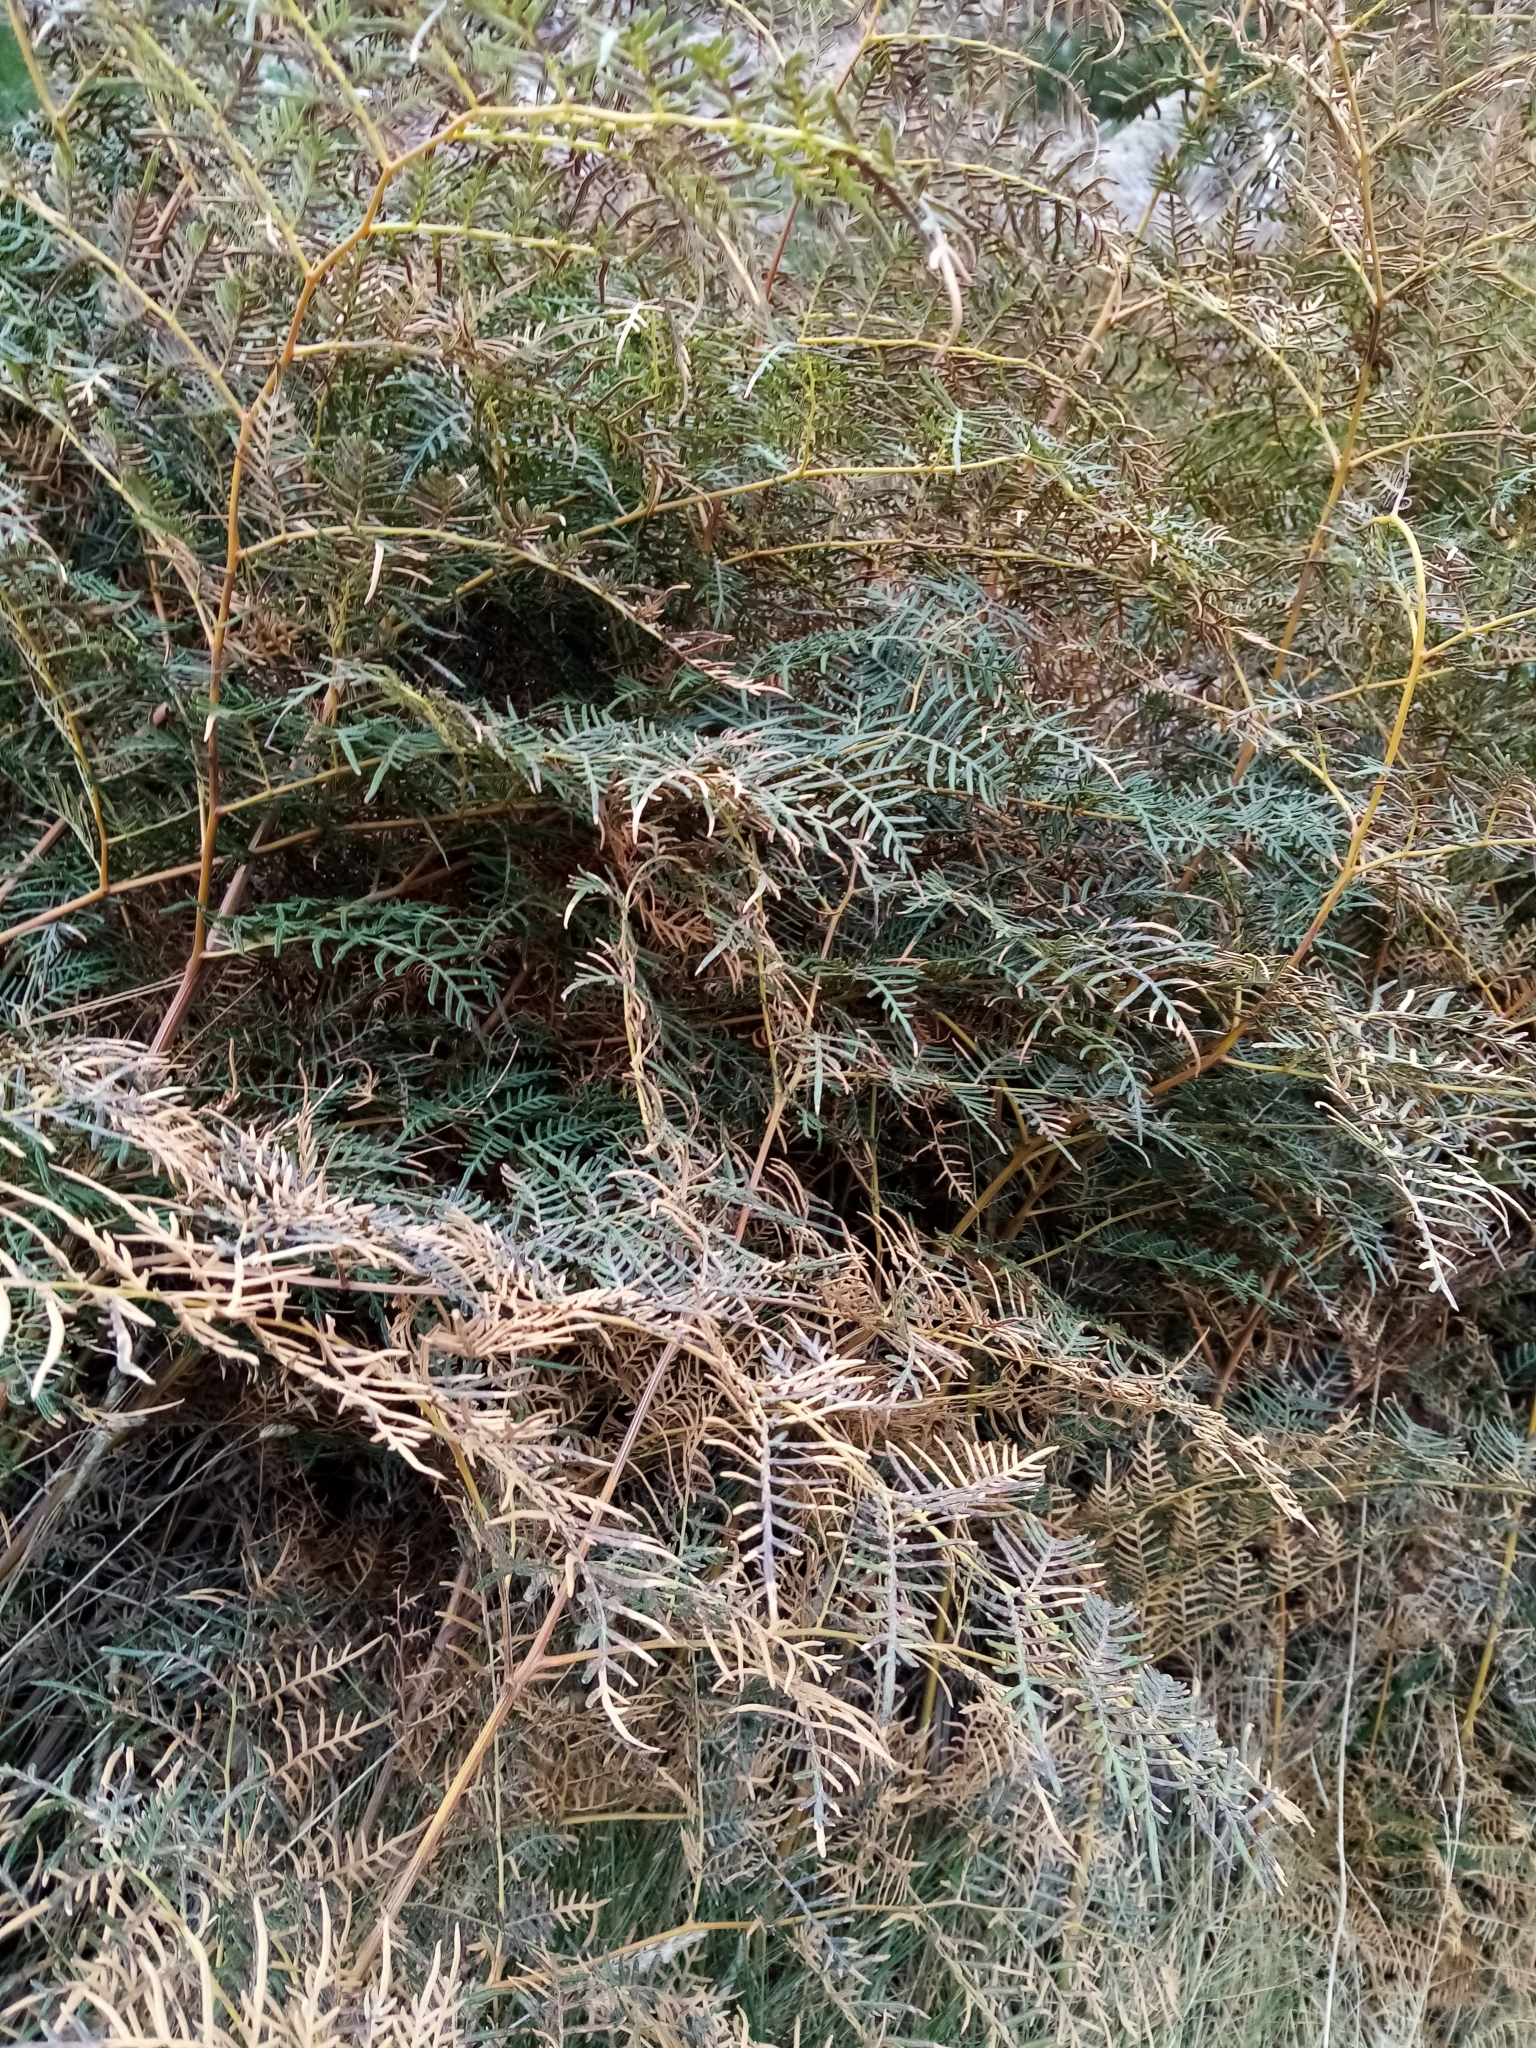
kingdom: Plantae
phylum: Tracheophyta
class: Polypodiopsida
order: Polypodiales
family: Dennstaedtiaceae
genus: Pteridium
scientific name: Pteridium esculentum
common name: Bracken fern
